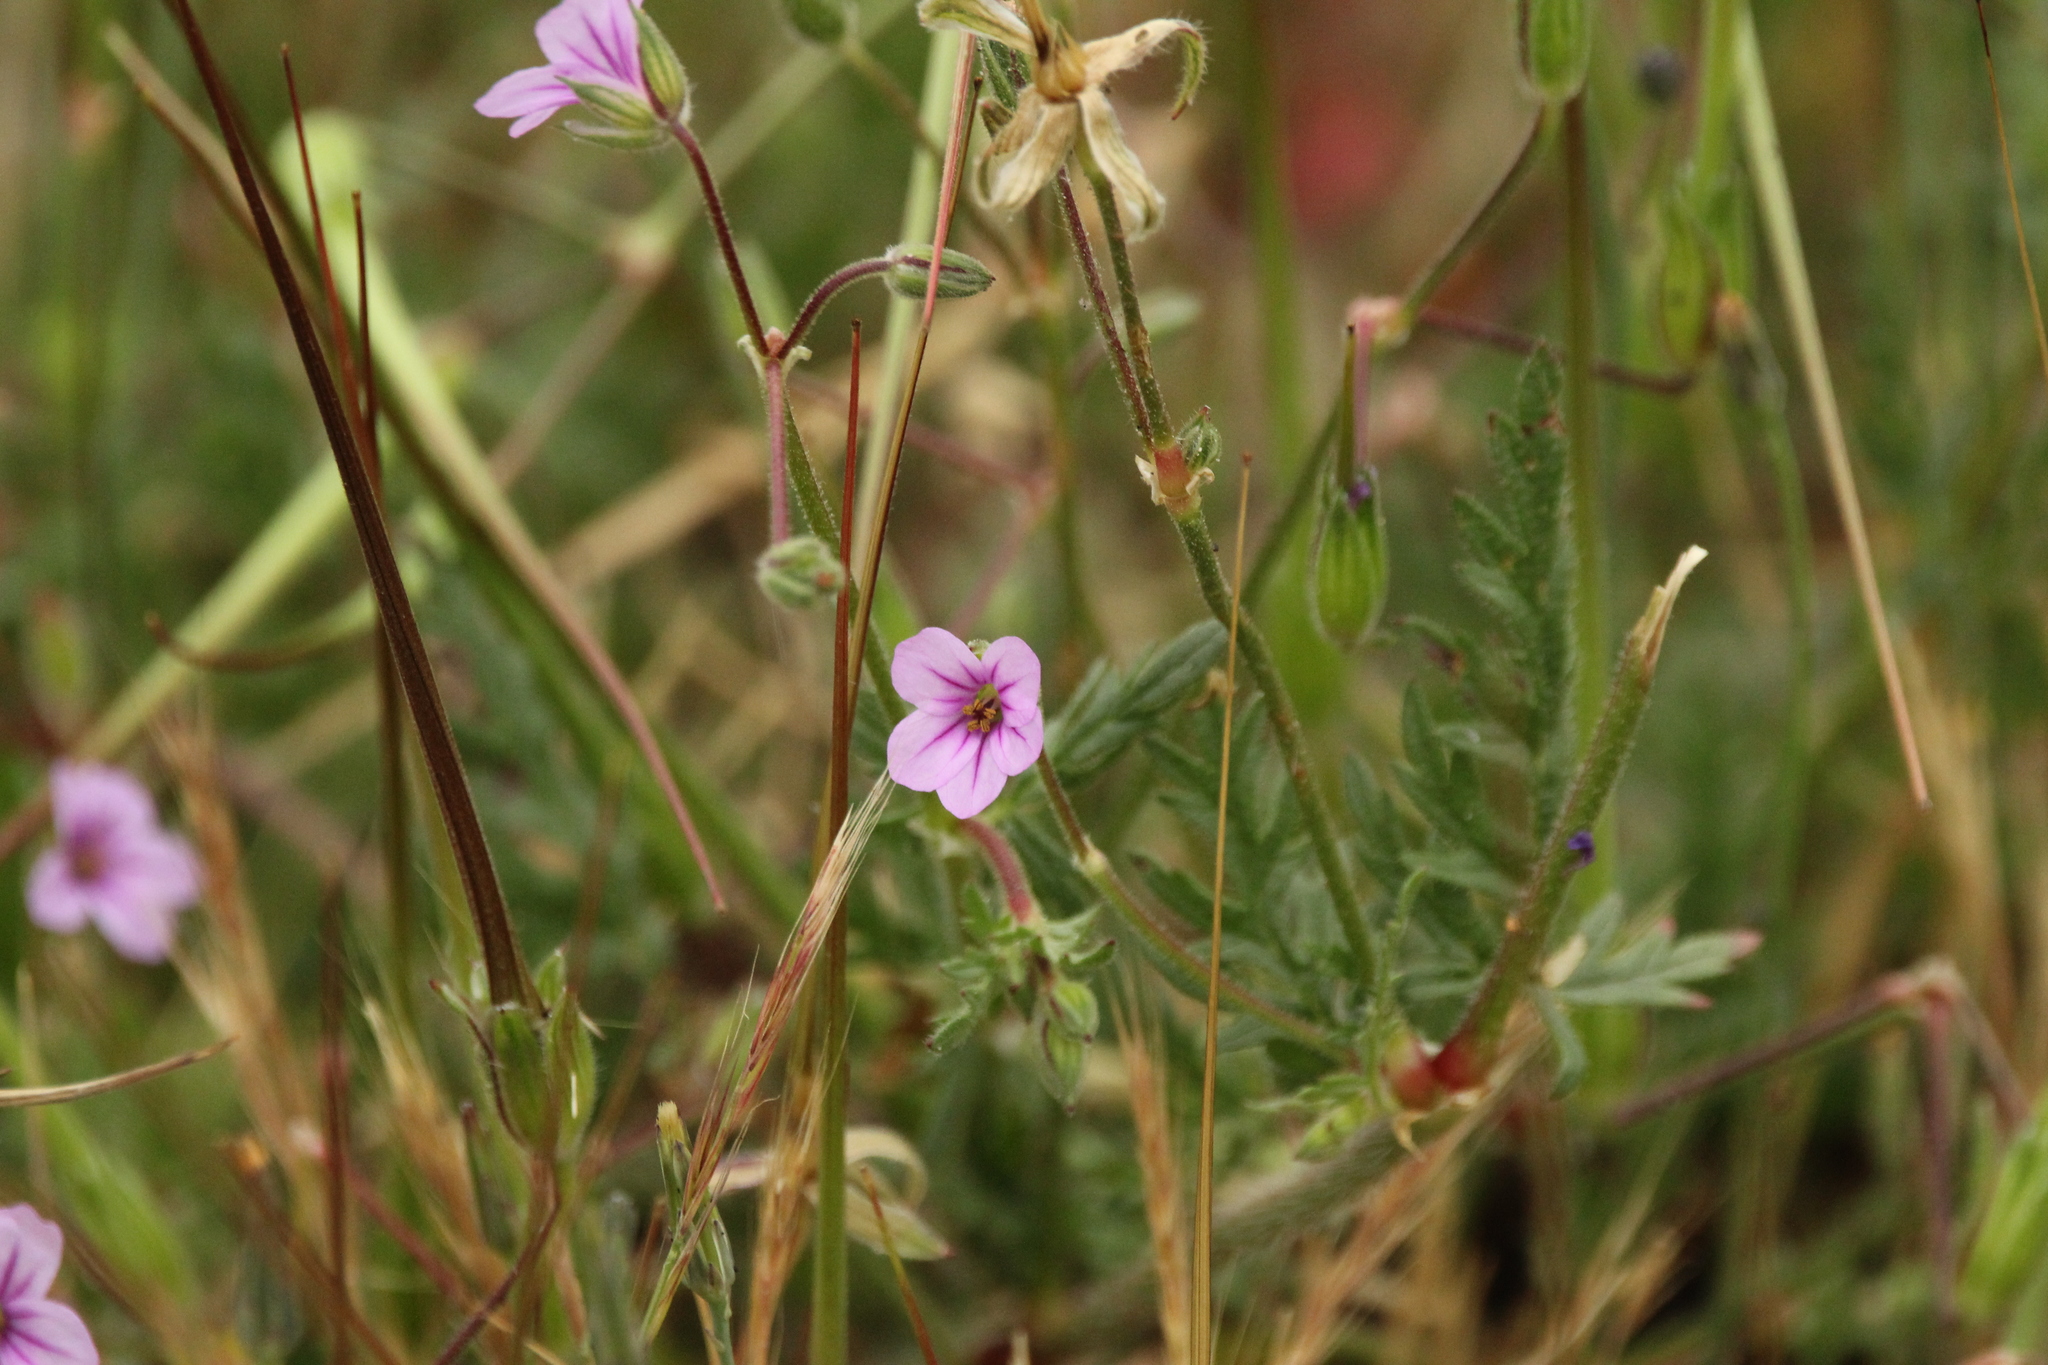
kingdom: Plantae
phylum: Tracheophyta
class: Magnoliopsida
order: Geraniales
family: Geraniaceae
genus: Erodium
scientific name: Erodium botrys
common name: Mediterranean stork's-bill
